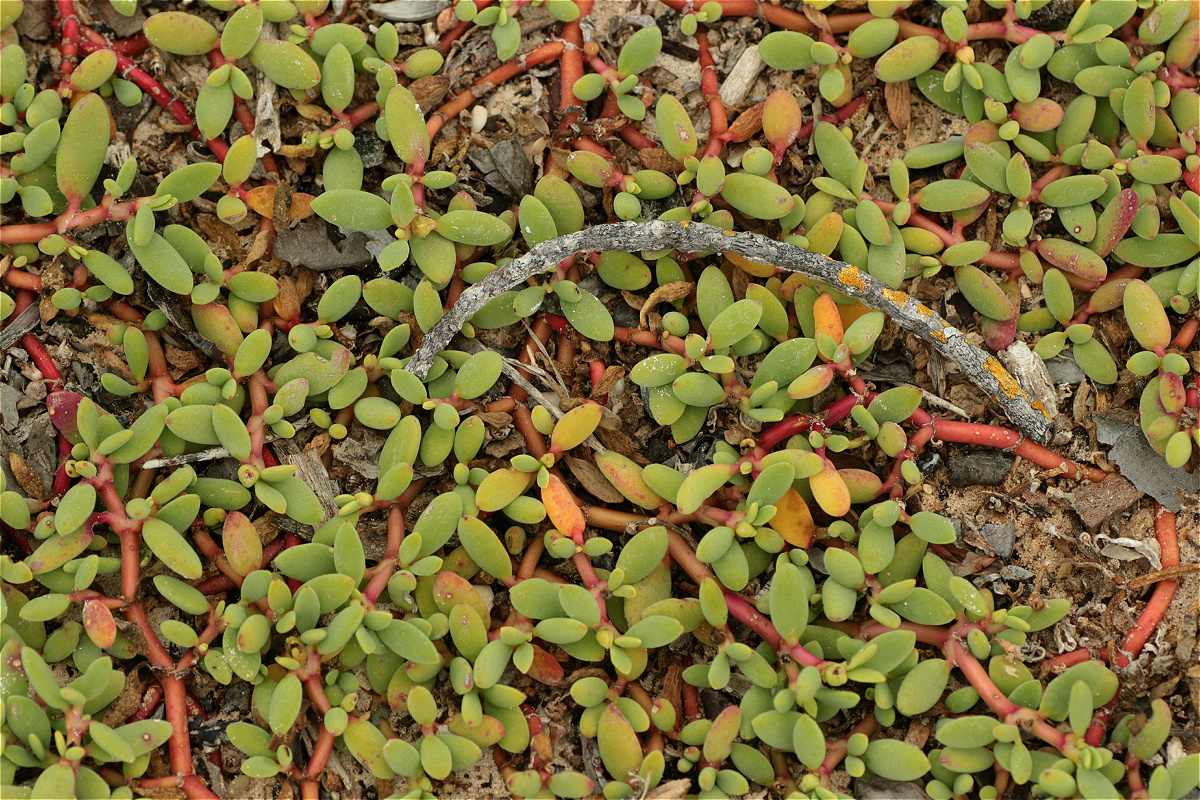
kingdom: Plantae
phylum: Tracheophyta
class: Magnoliopsida
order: Caryophyllales
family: Aizoaceae
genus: Sesuvium
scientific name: Sesuvium edmonstonei
